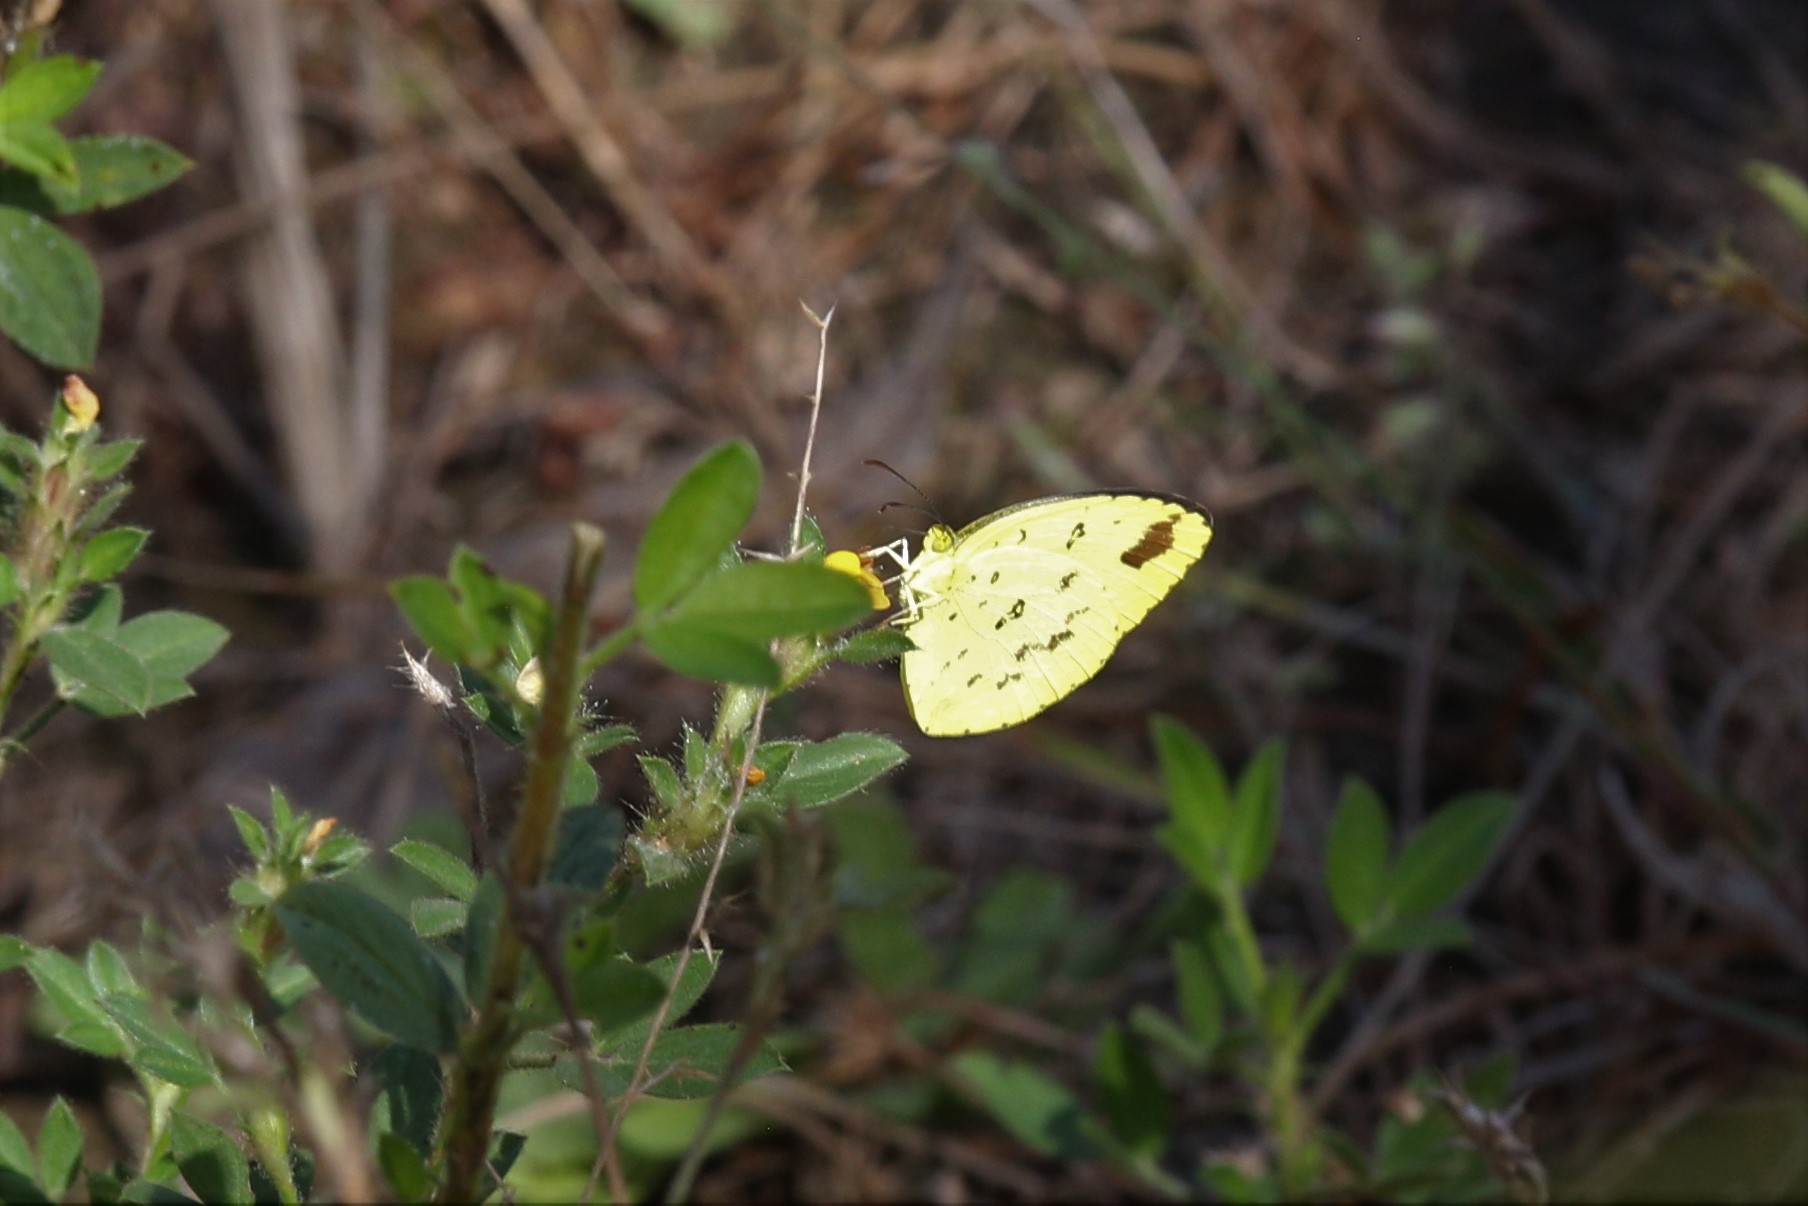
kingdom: Animalia
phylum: Arthropoda
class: Insecta
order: Lepidoptera
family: Pieridae
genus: Eurema
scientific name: Eurema hecabe
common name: Pale grass yellow
